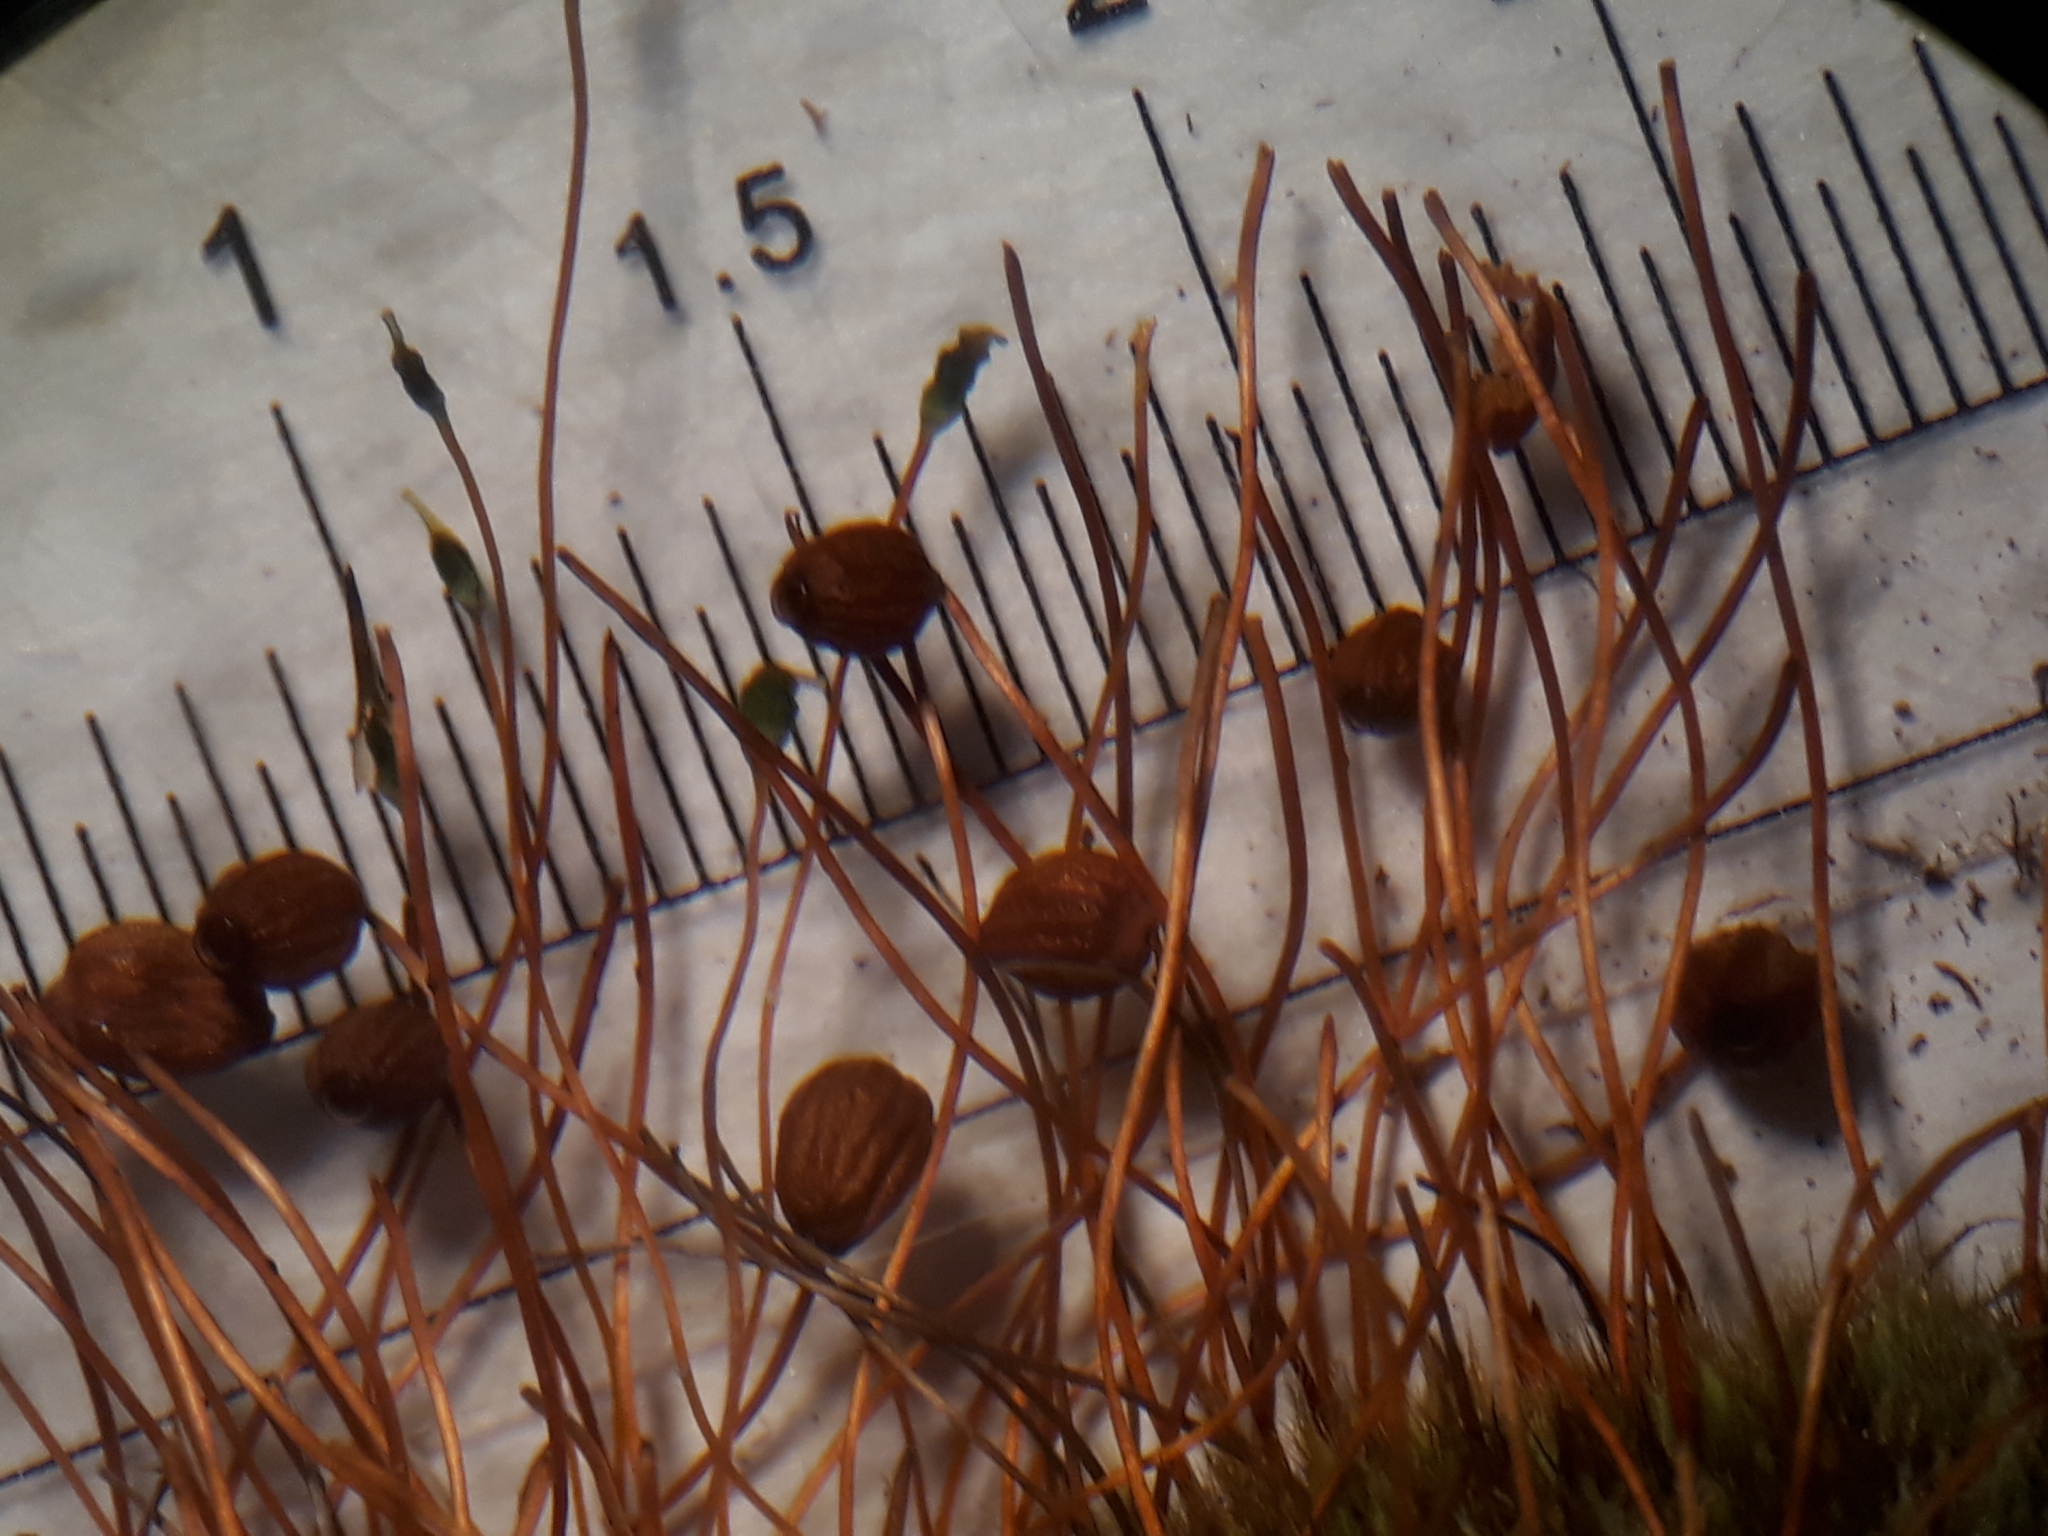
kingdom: Plantae
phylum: Bryophyta
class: Bryopsida
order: Bartramiales
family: Bartramiaceae
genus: Conostomum
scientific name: Conostomum pentastichum
